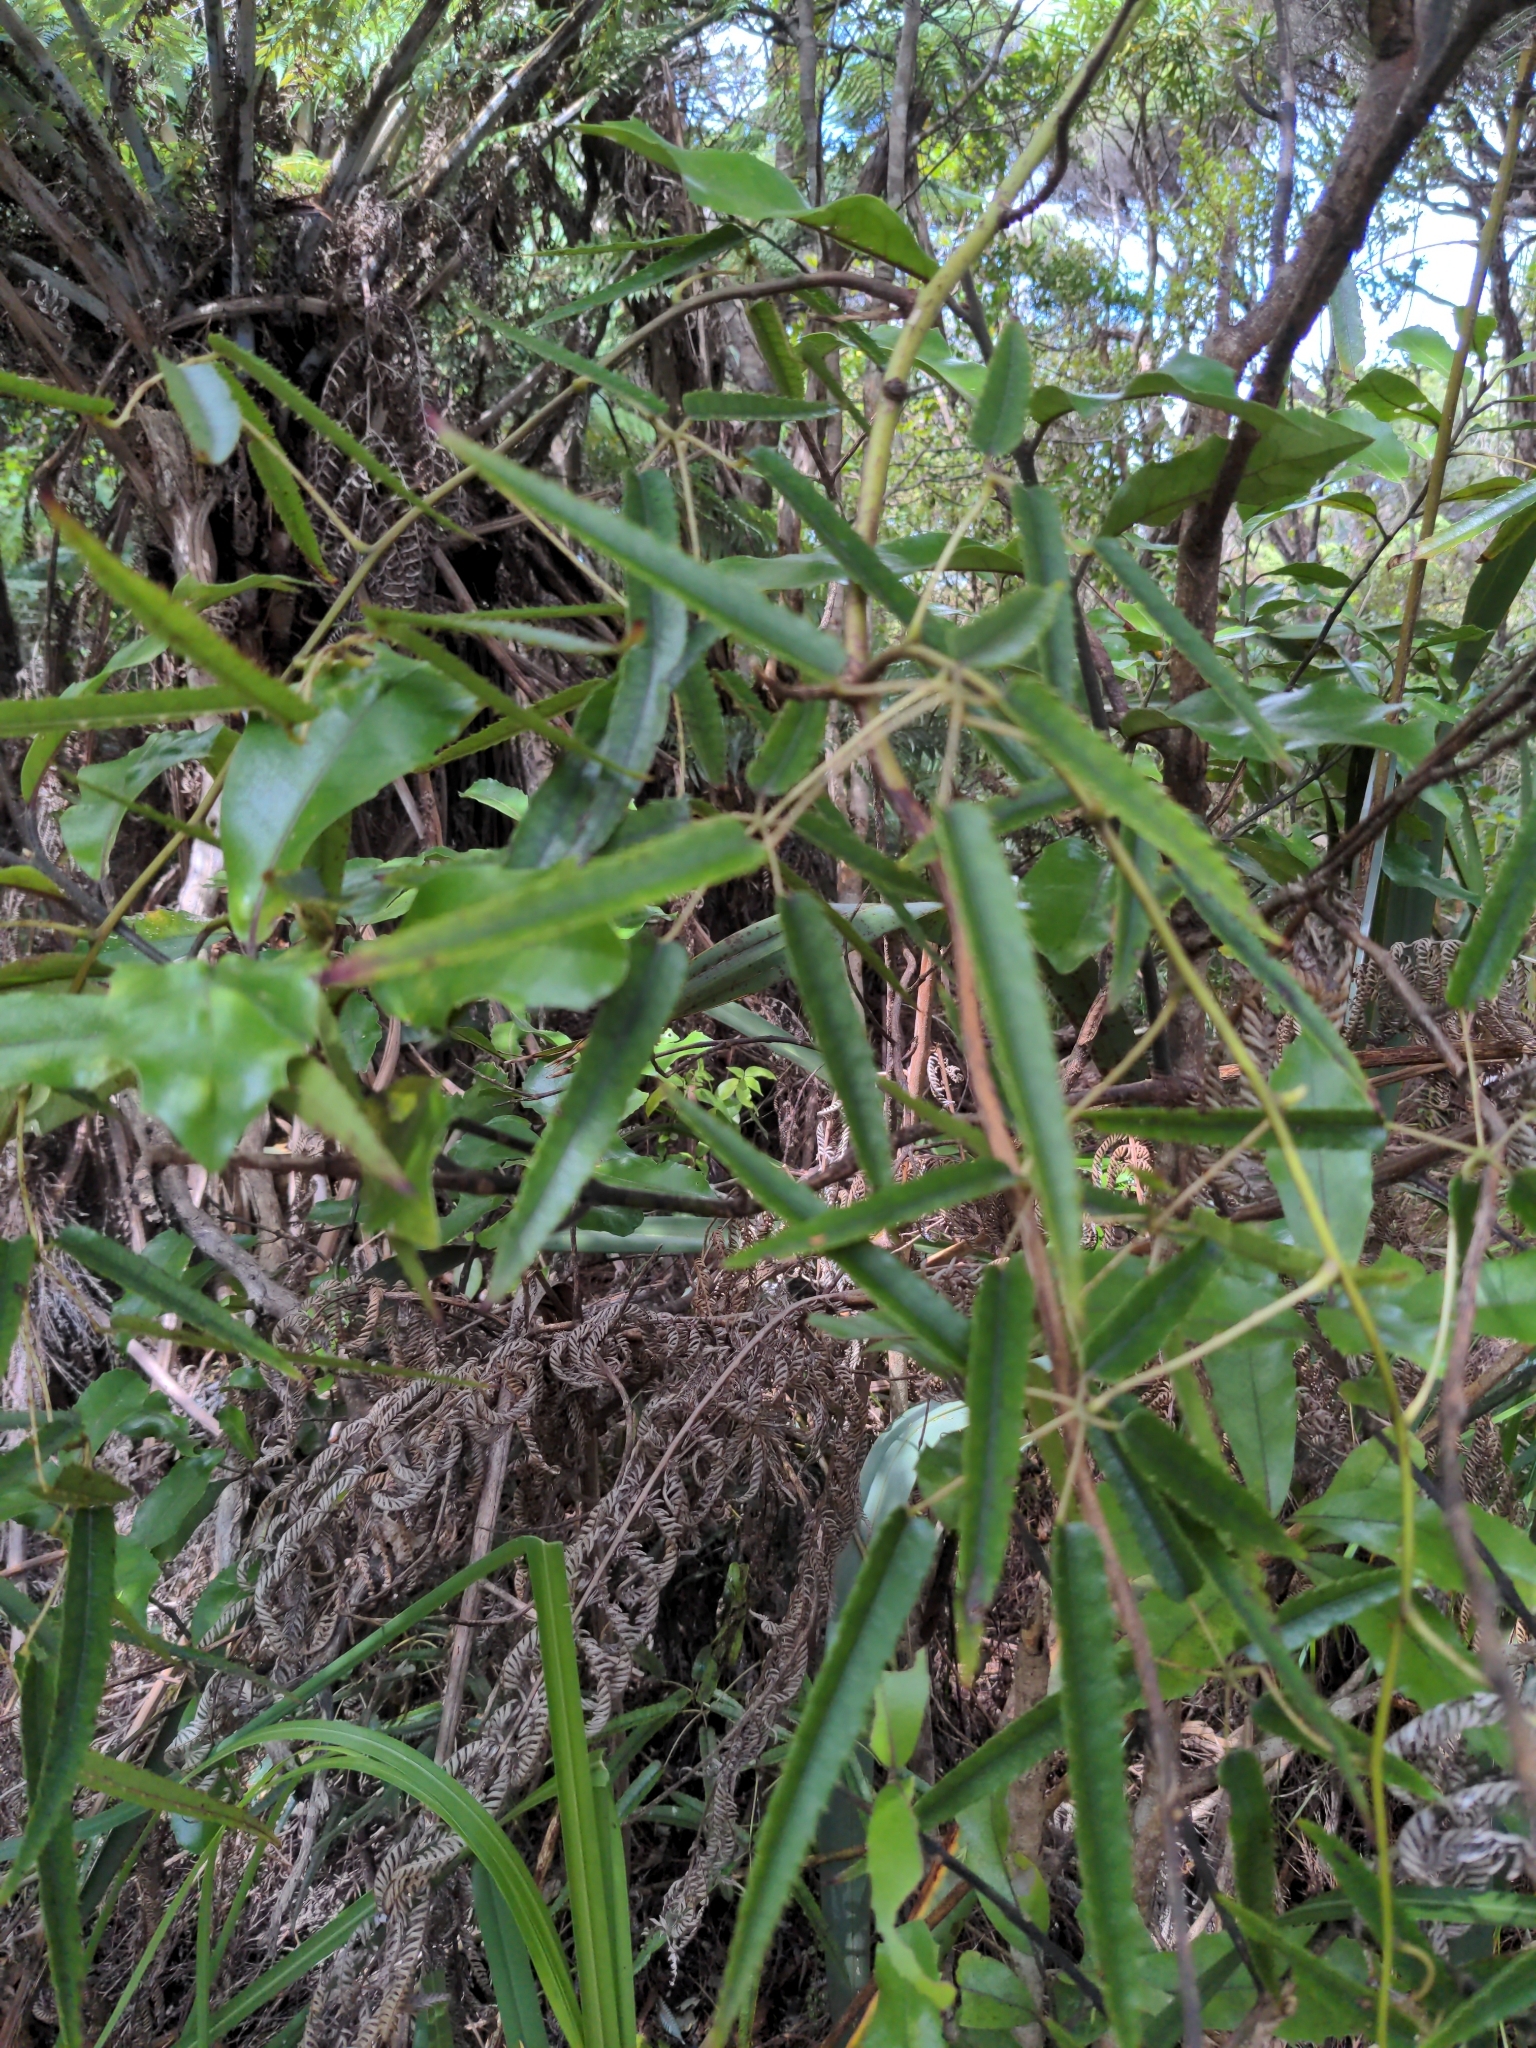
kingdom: Plantae
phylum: Tracheophyta
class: Magnoliopsida
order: Rosales
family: Rosaceae
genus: Rubus
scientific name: Rubus cissoides
